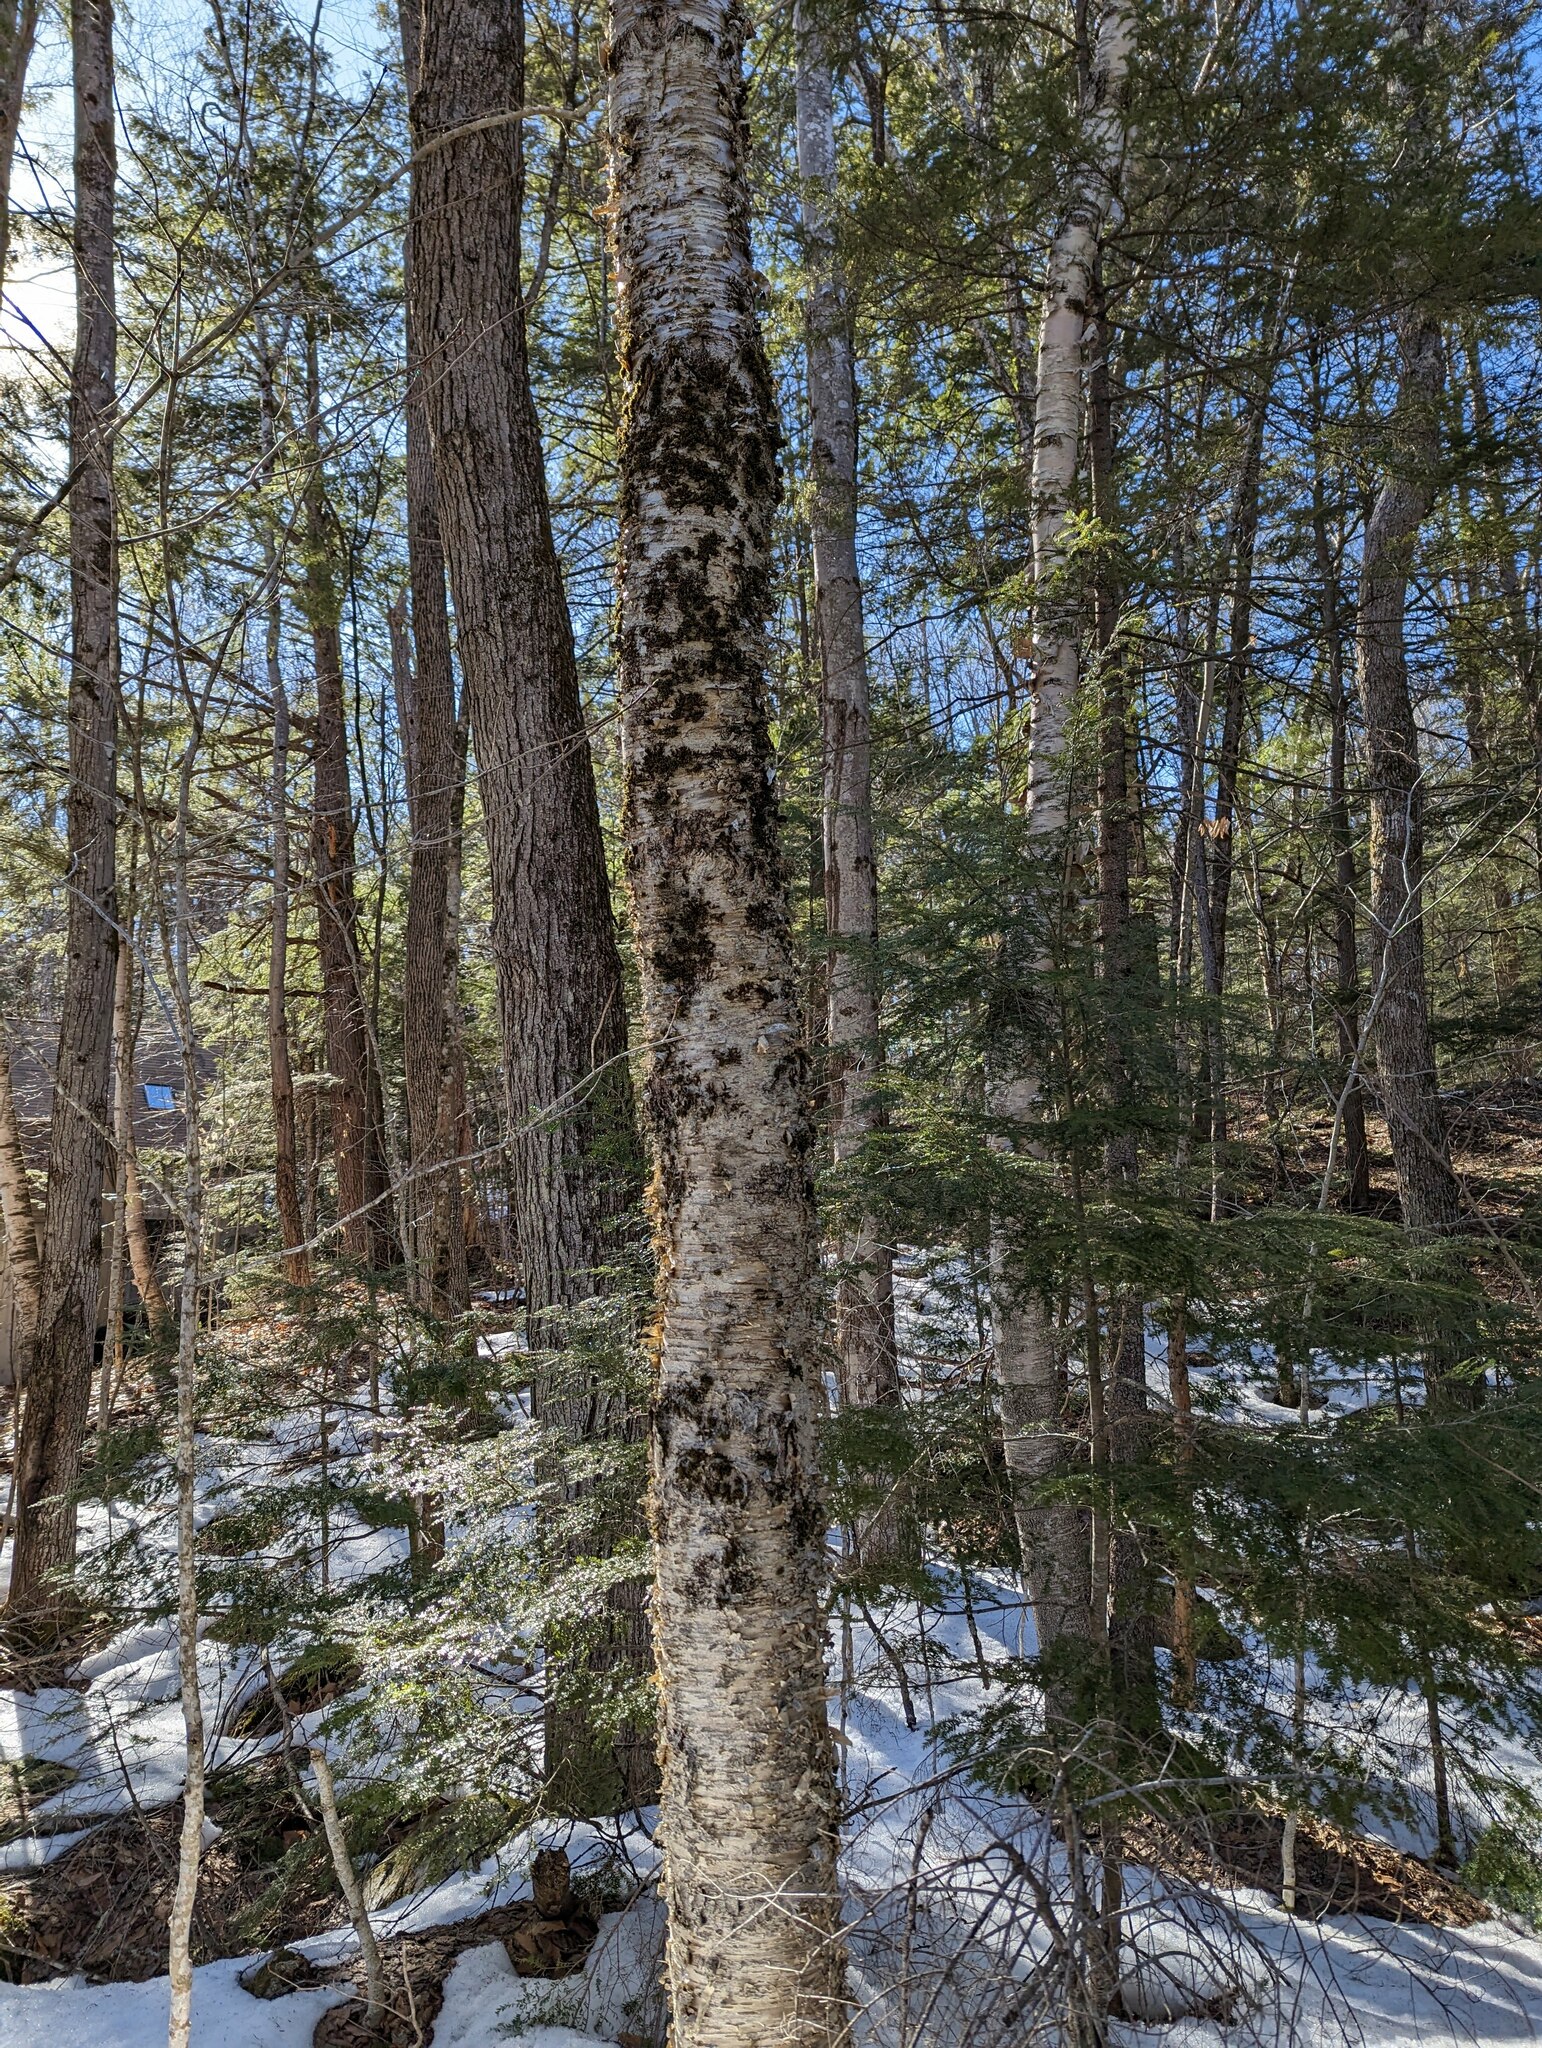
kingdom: Plantae
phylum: Tracheophyta
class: Magnoliopsida
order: Fagales
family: Betulaceae
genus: Betula
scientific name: Betula alleghaniensis
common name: Yellow birch
